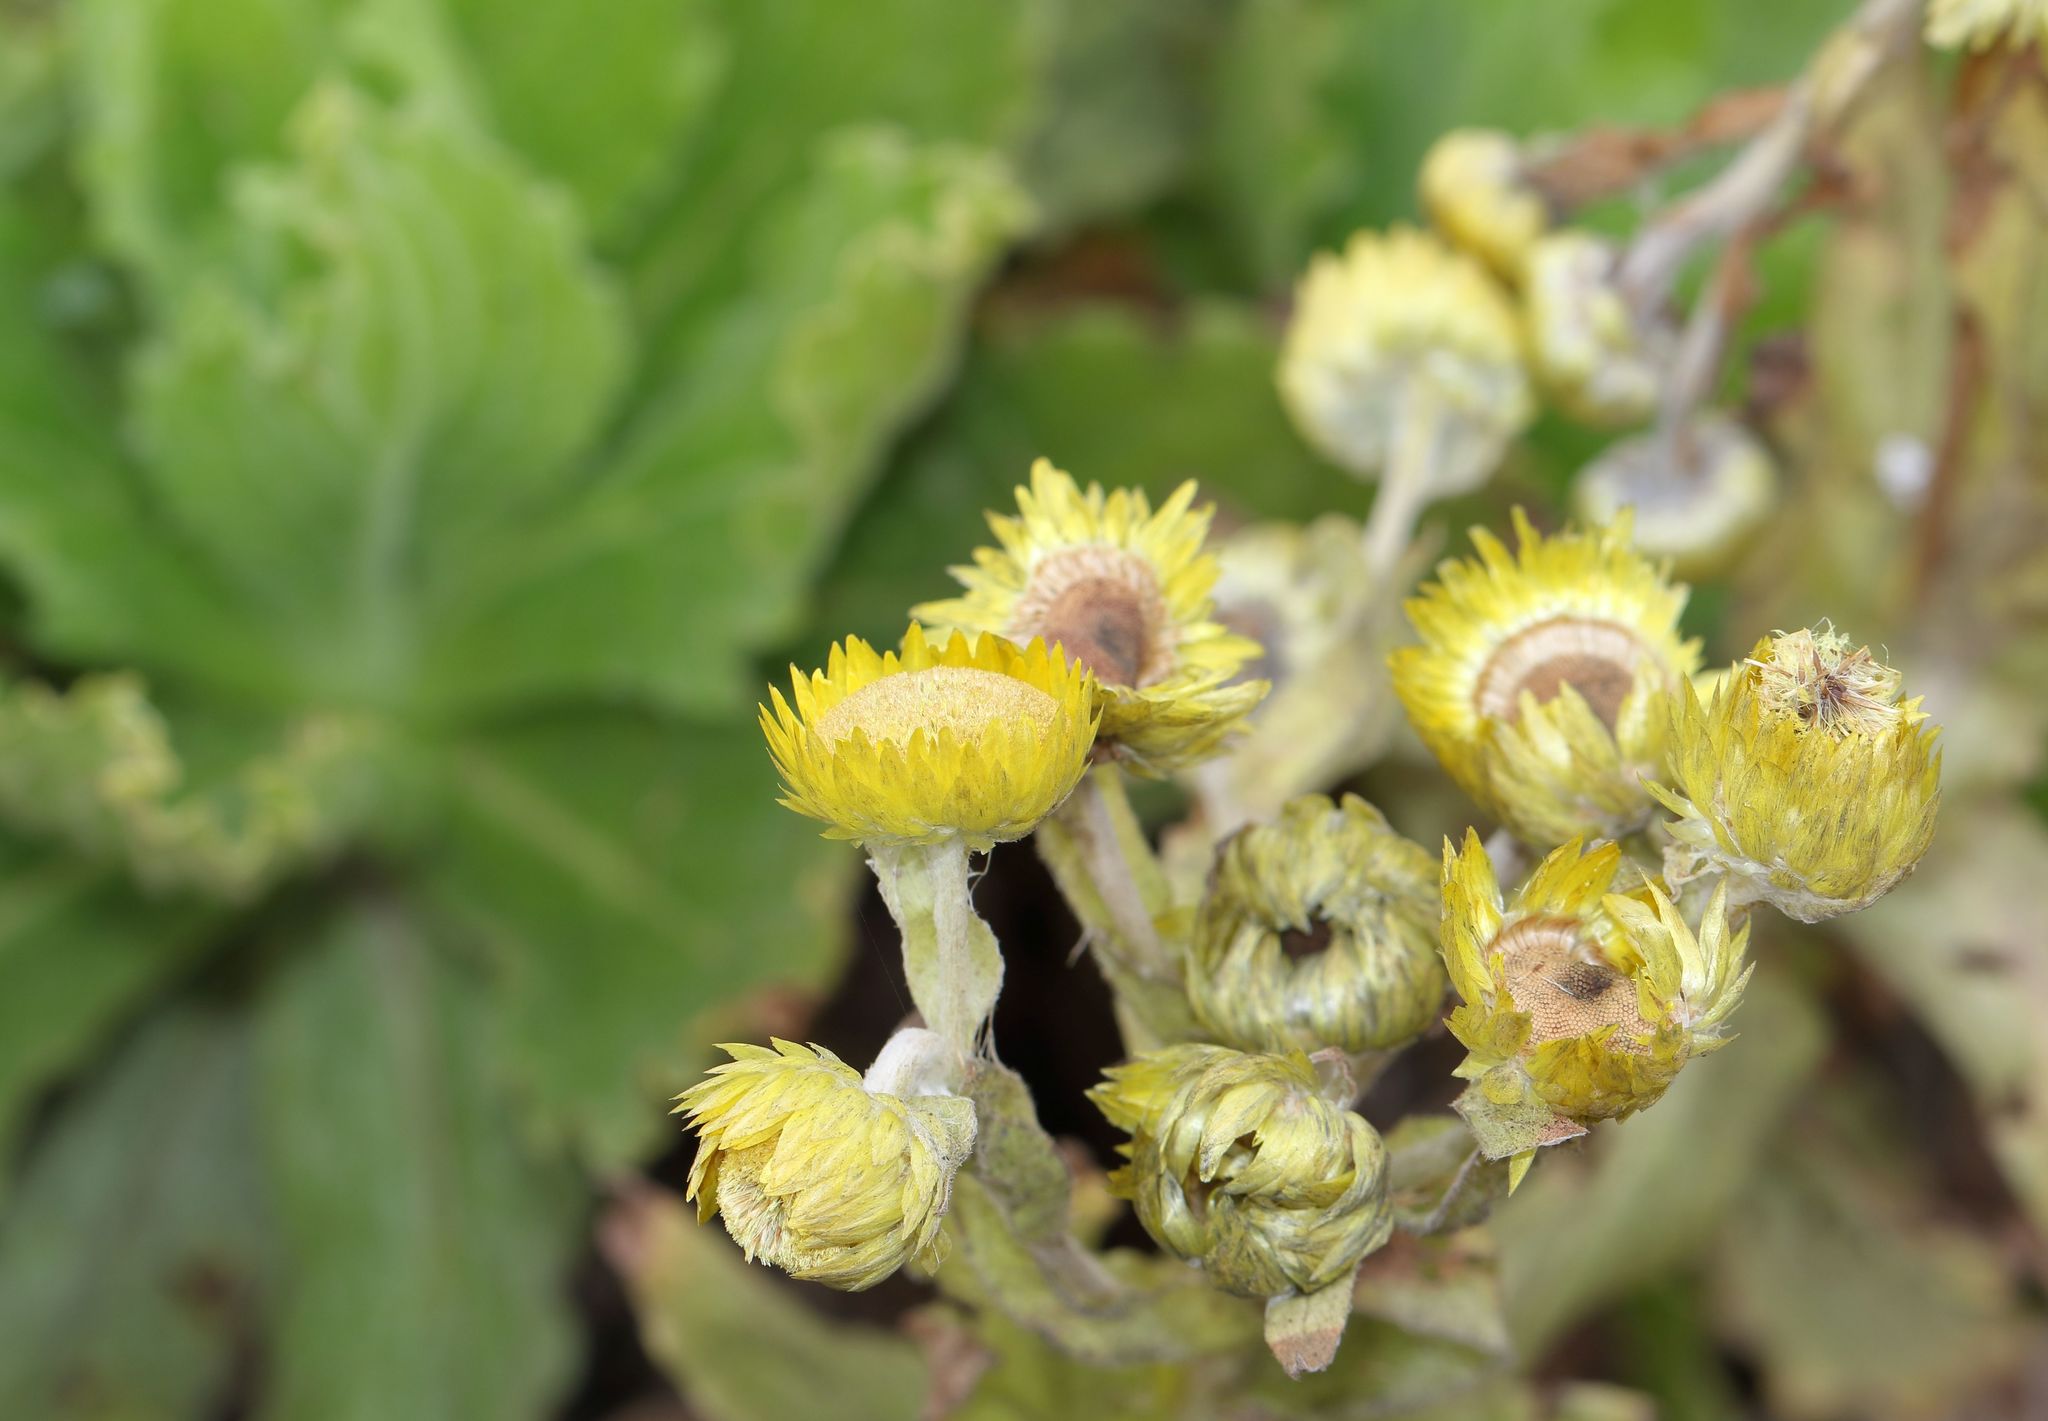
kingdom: Plantae
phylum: Tracheophyta
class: Magnoliopsida
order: Asterales
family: Asteraceae
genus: Helichrysum
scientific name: Helichrysum tenax
